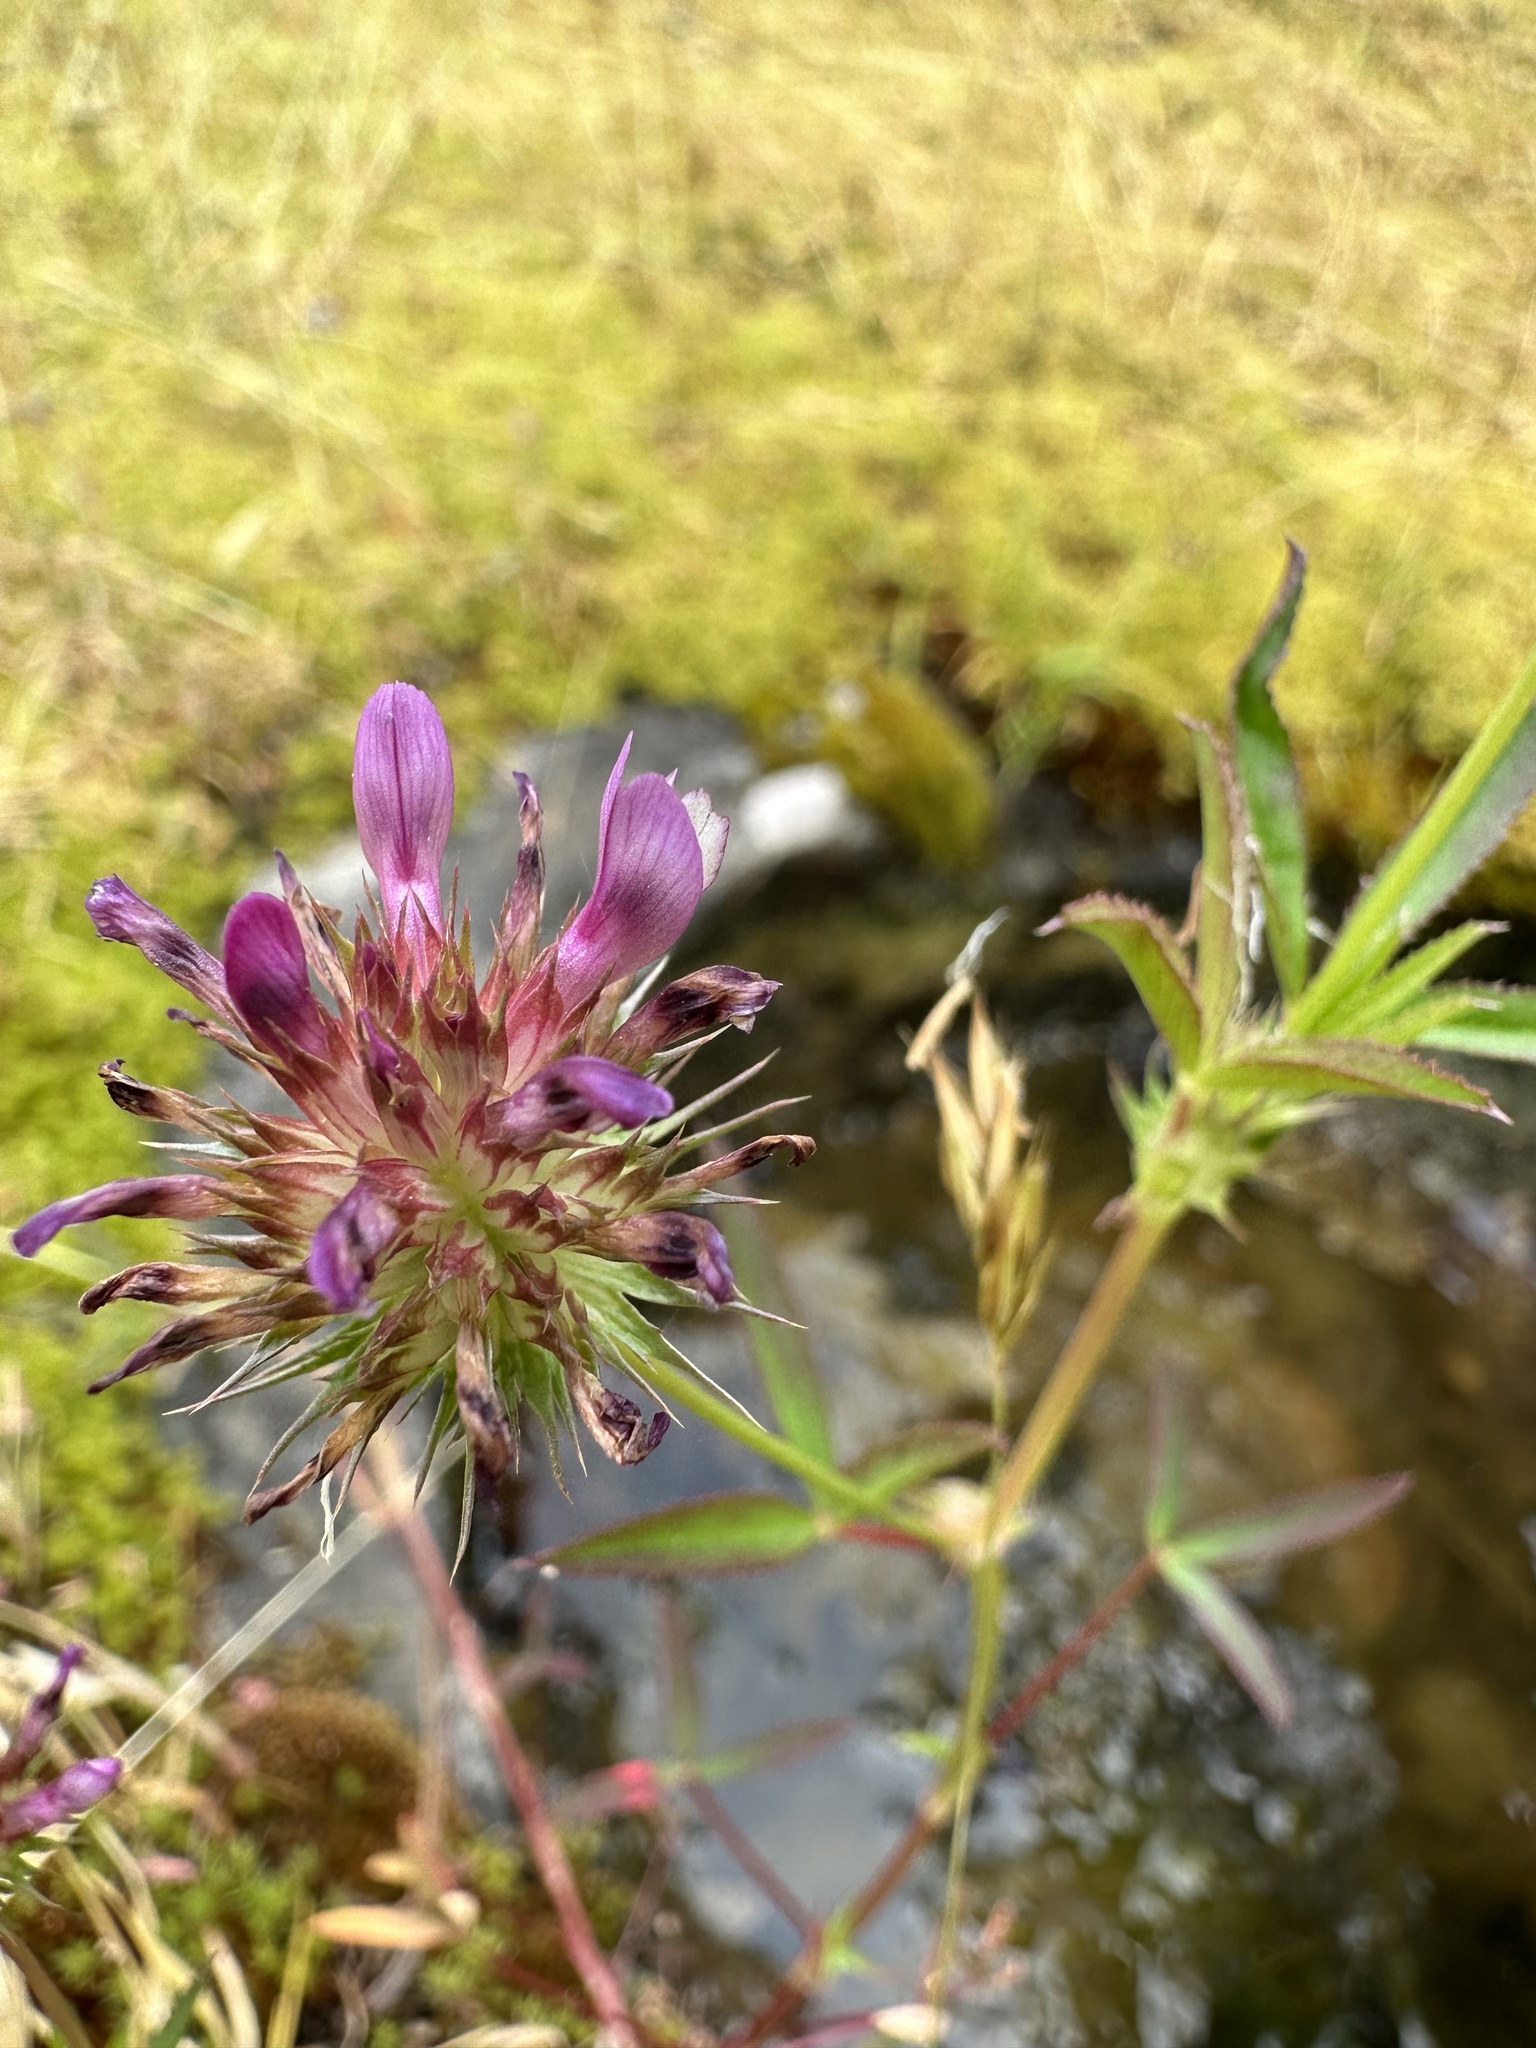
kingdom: Plantae
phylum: Tracheophyta
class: Magnoliopsida
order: Fabales
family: Fabaceae
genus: Trifolium
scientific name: Trifolium willdenovii
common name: Tomcat clover
